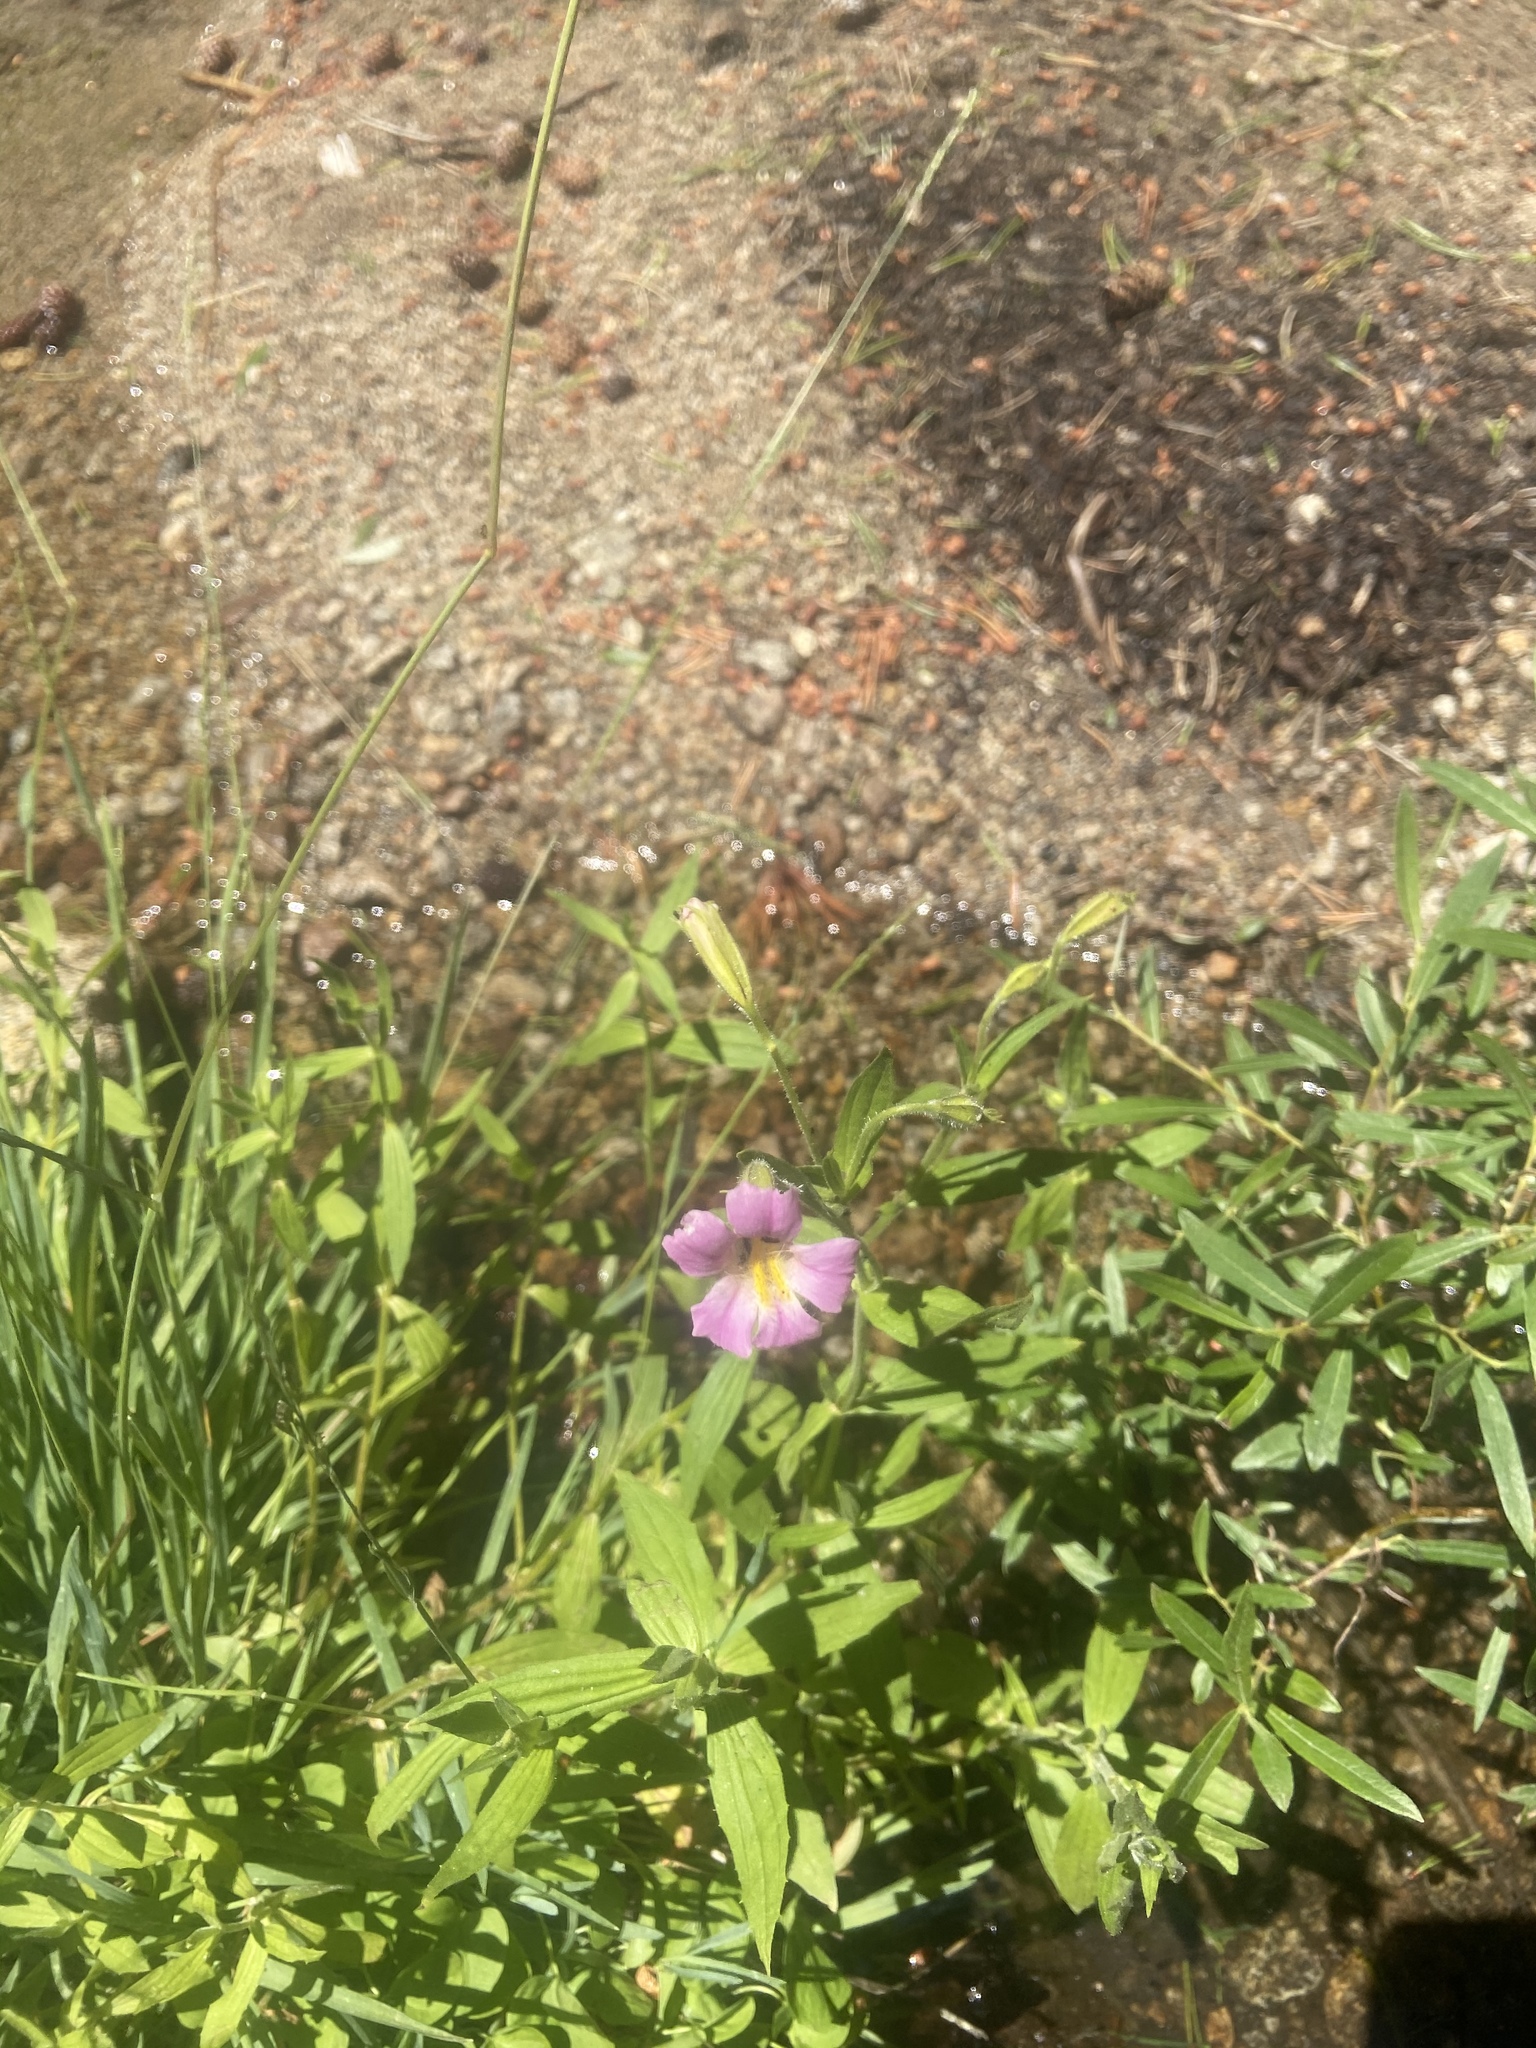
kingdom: Plantae
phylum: Tracheophyta
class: Magnoliopsida
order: Lamiales
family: Phrymaceae
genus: Erythranthe
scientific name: Erythranthe erubescens
